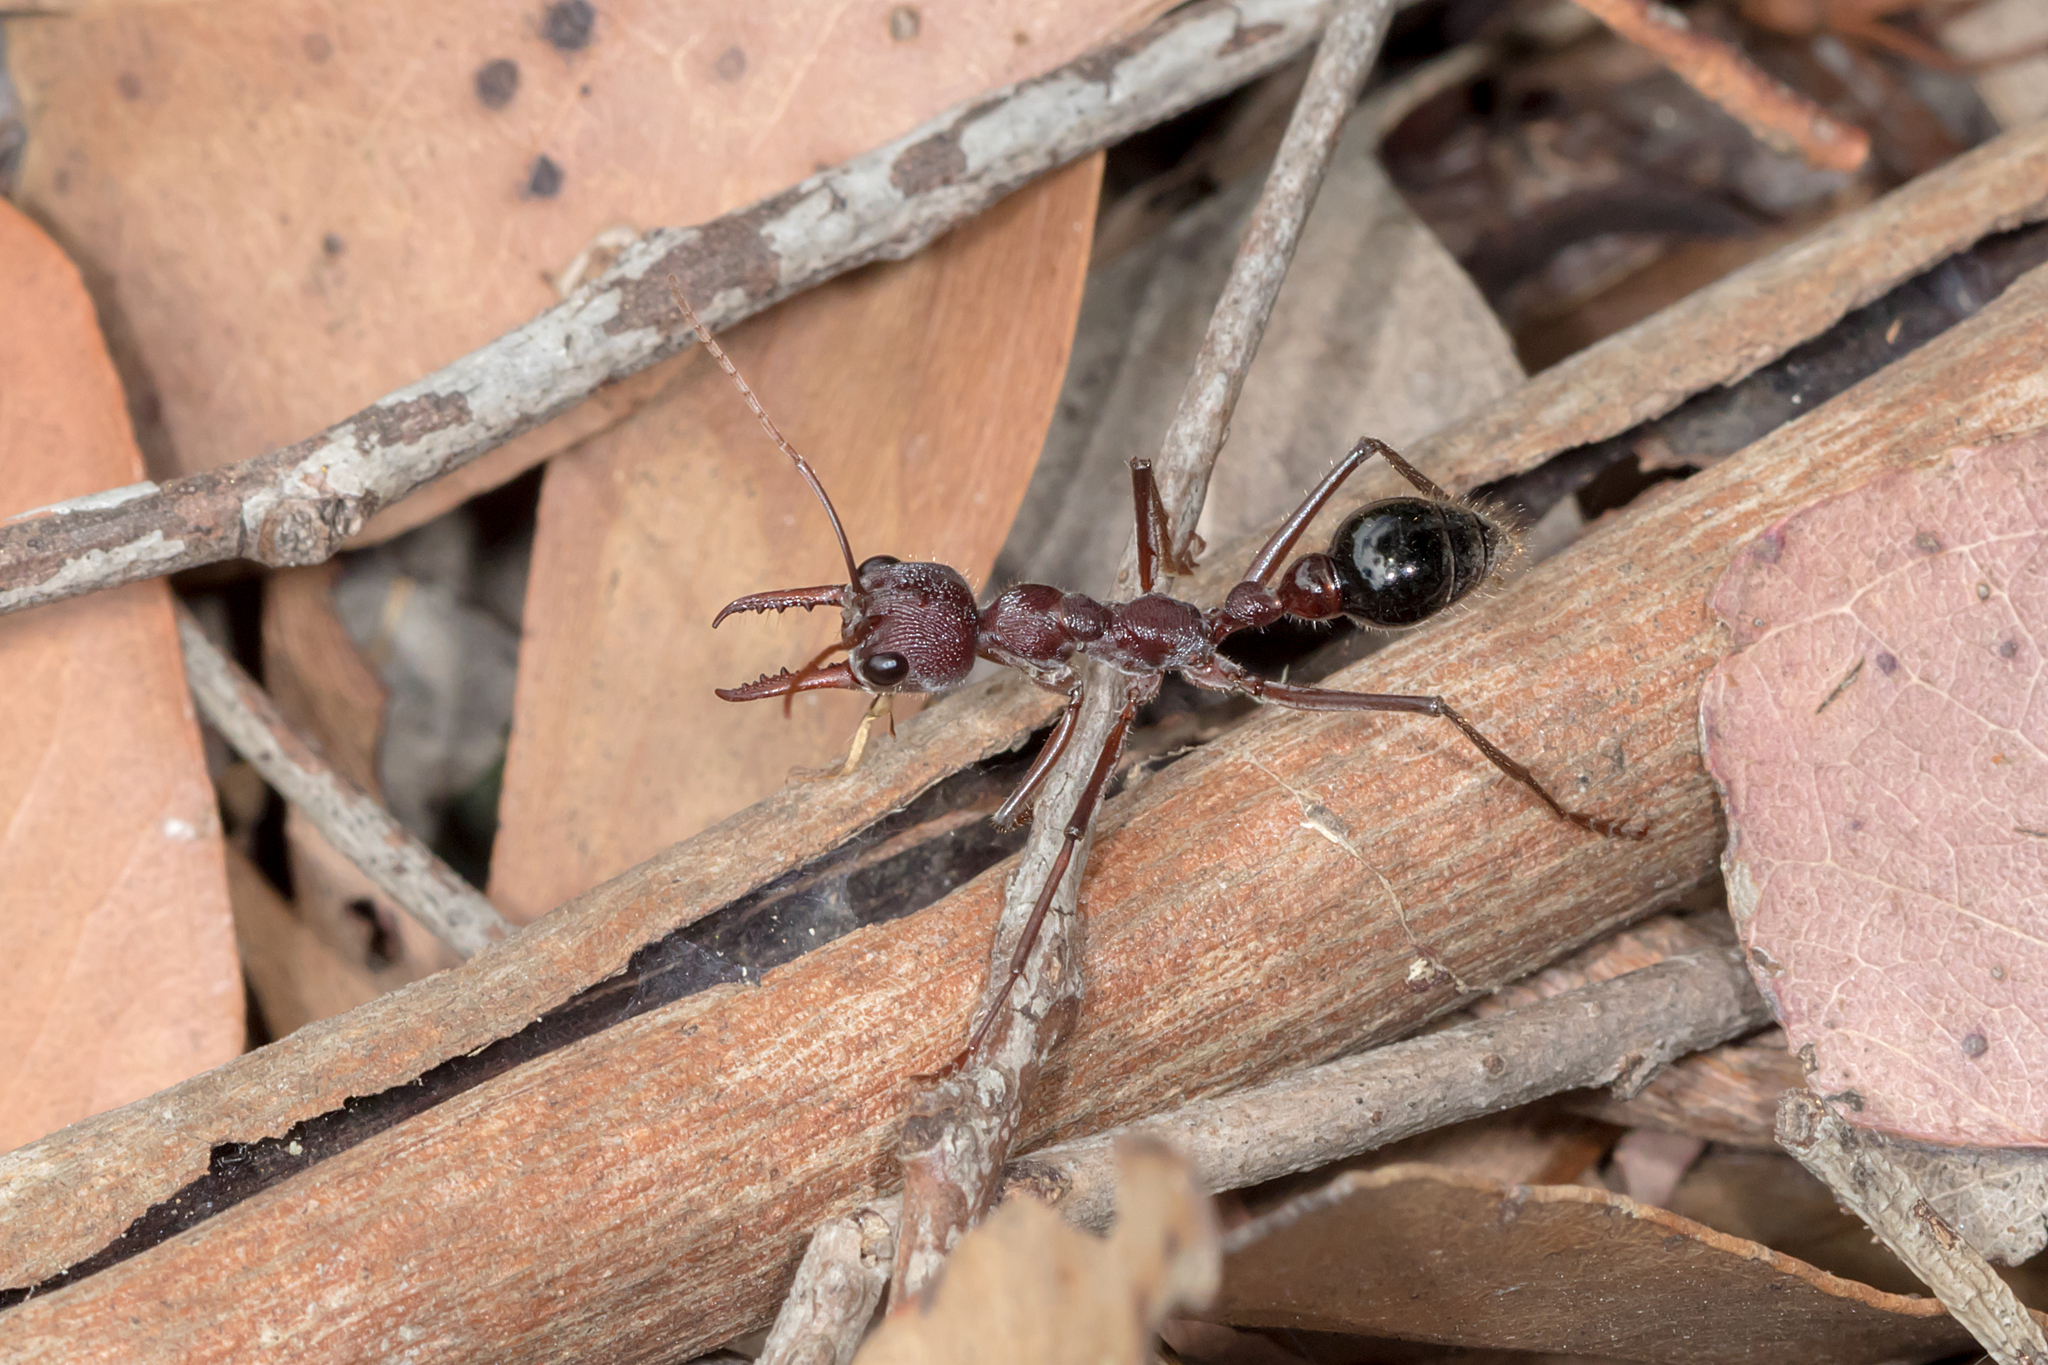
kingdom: Animalia
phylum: Arthropoda
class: Insecta
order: Hymenoptera
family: Formicidae
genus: Myrmecia
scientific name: Myrmecia simillima
